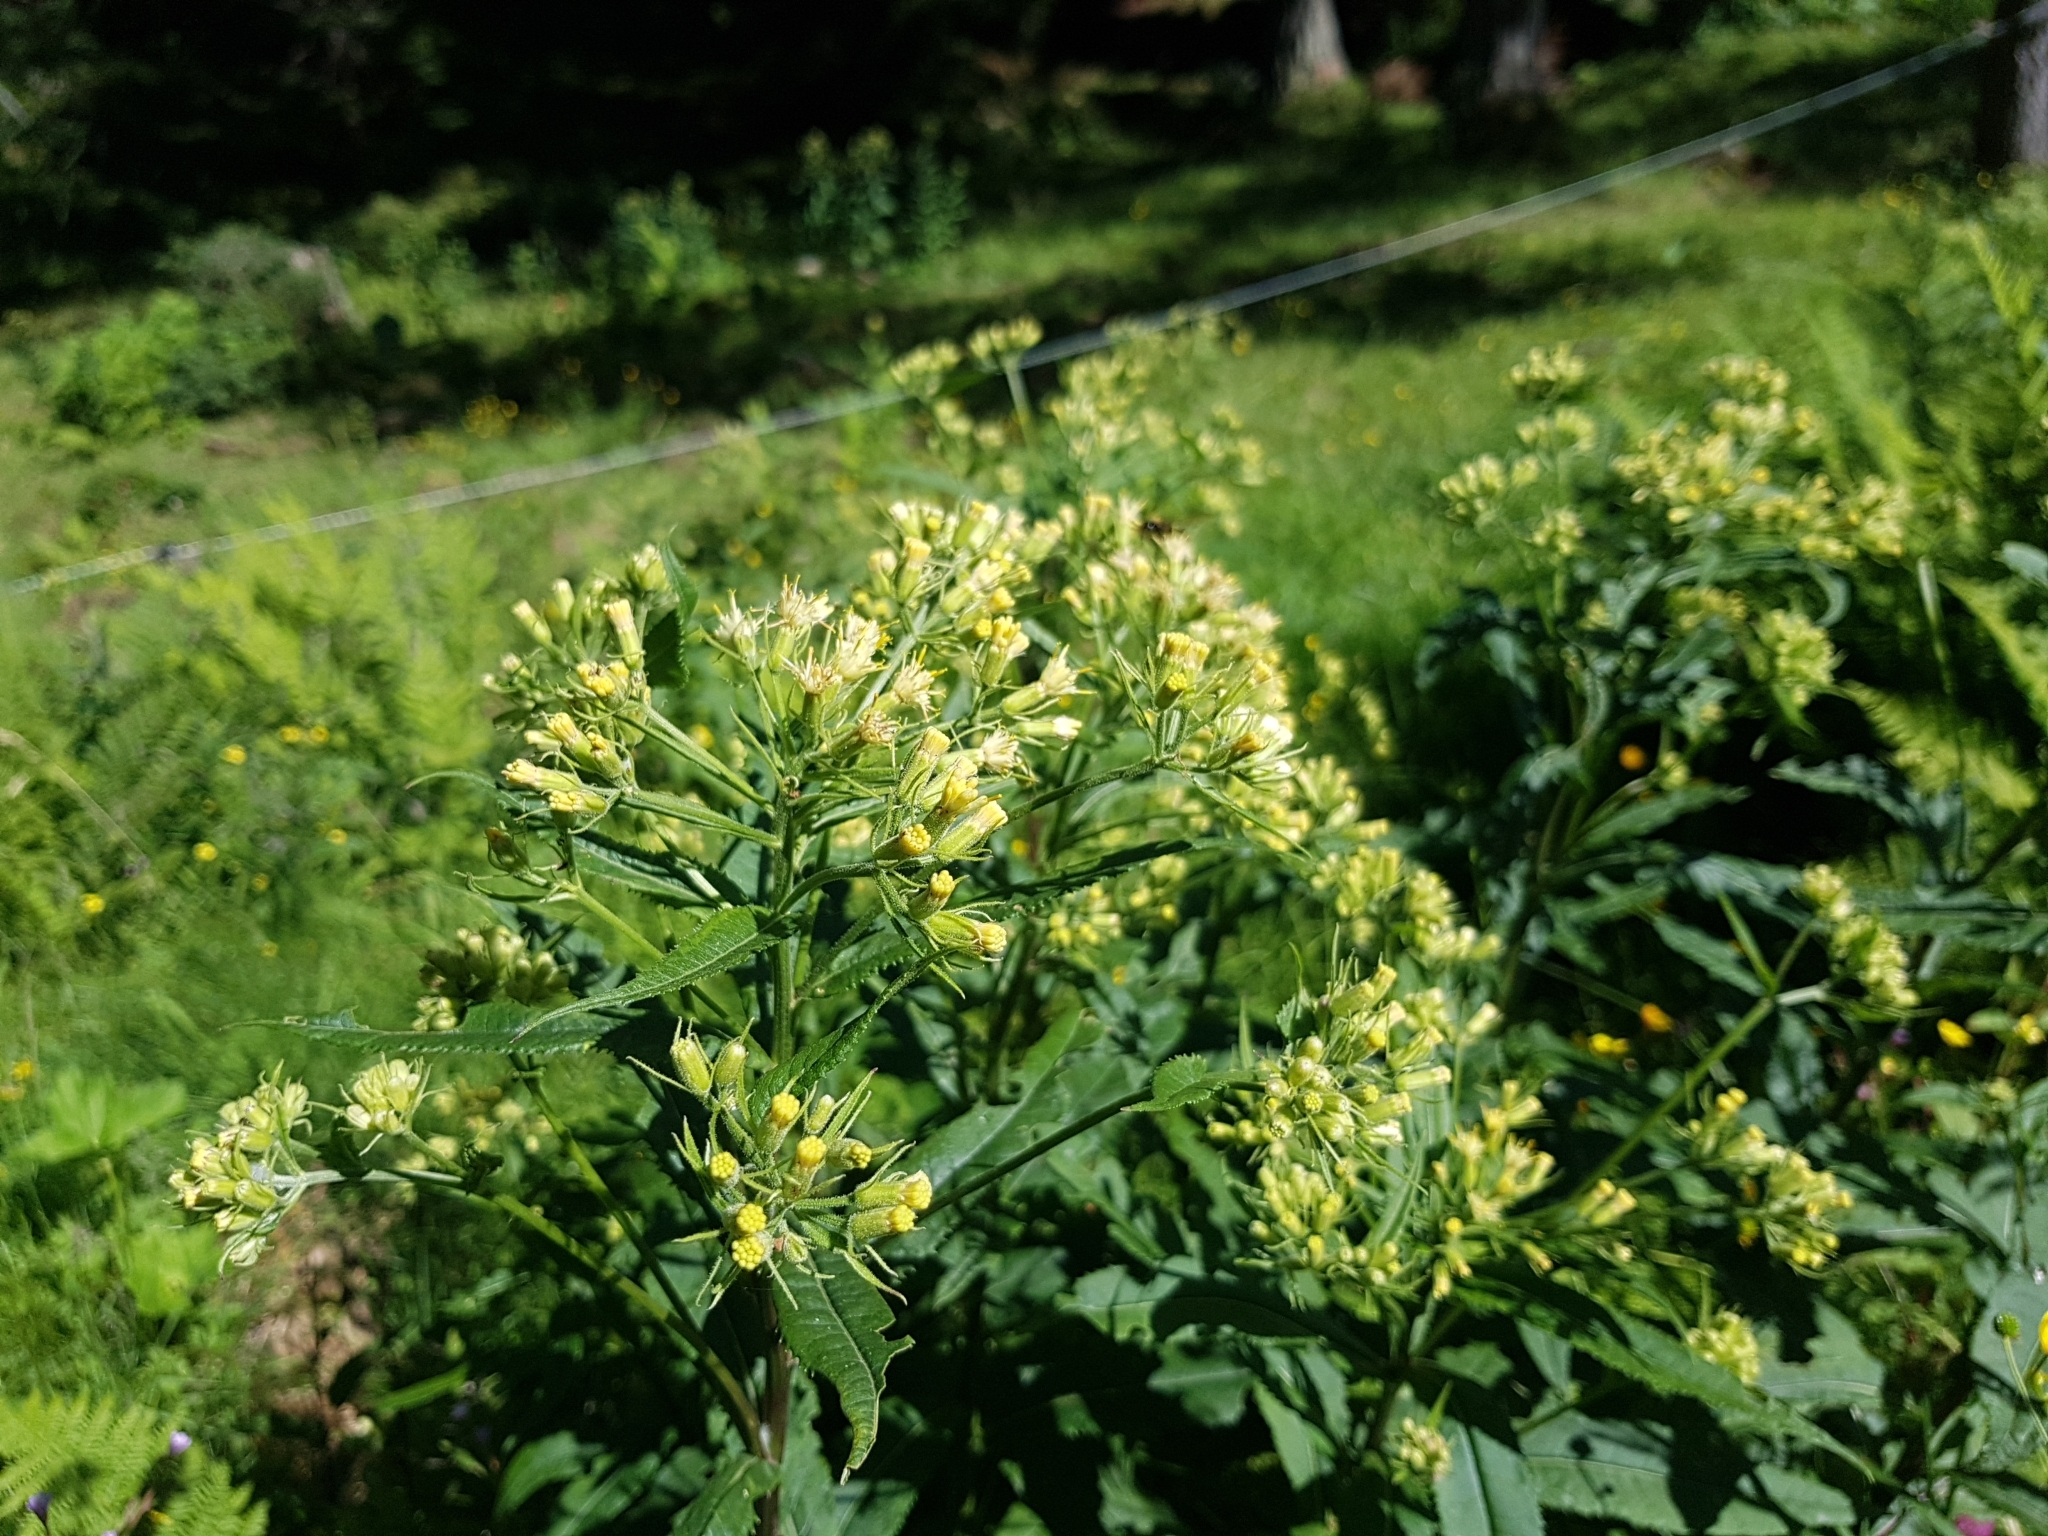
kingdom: Plantae
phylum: Tracheophyta
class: Magnoliopsida
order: Asterales
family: Asteraceae
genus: Senecio
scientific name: Senecio cacaliaster
